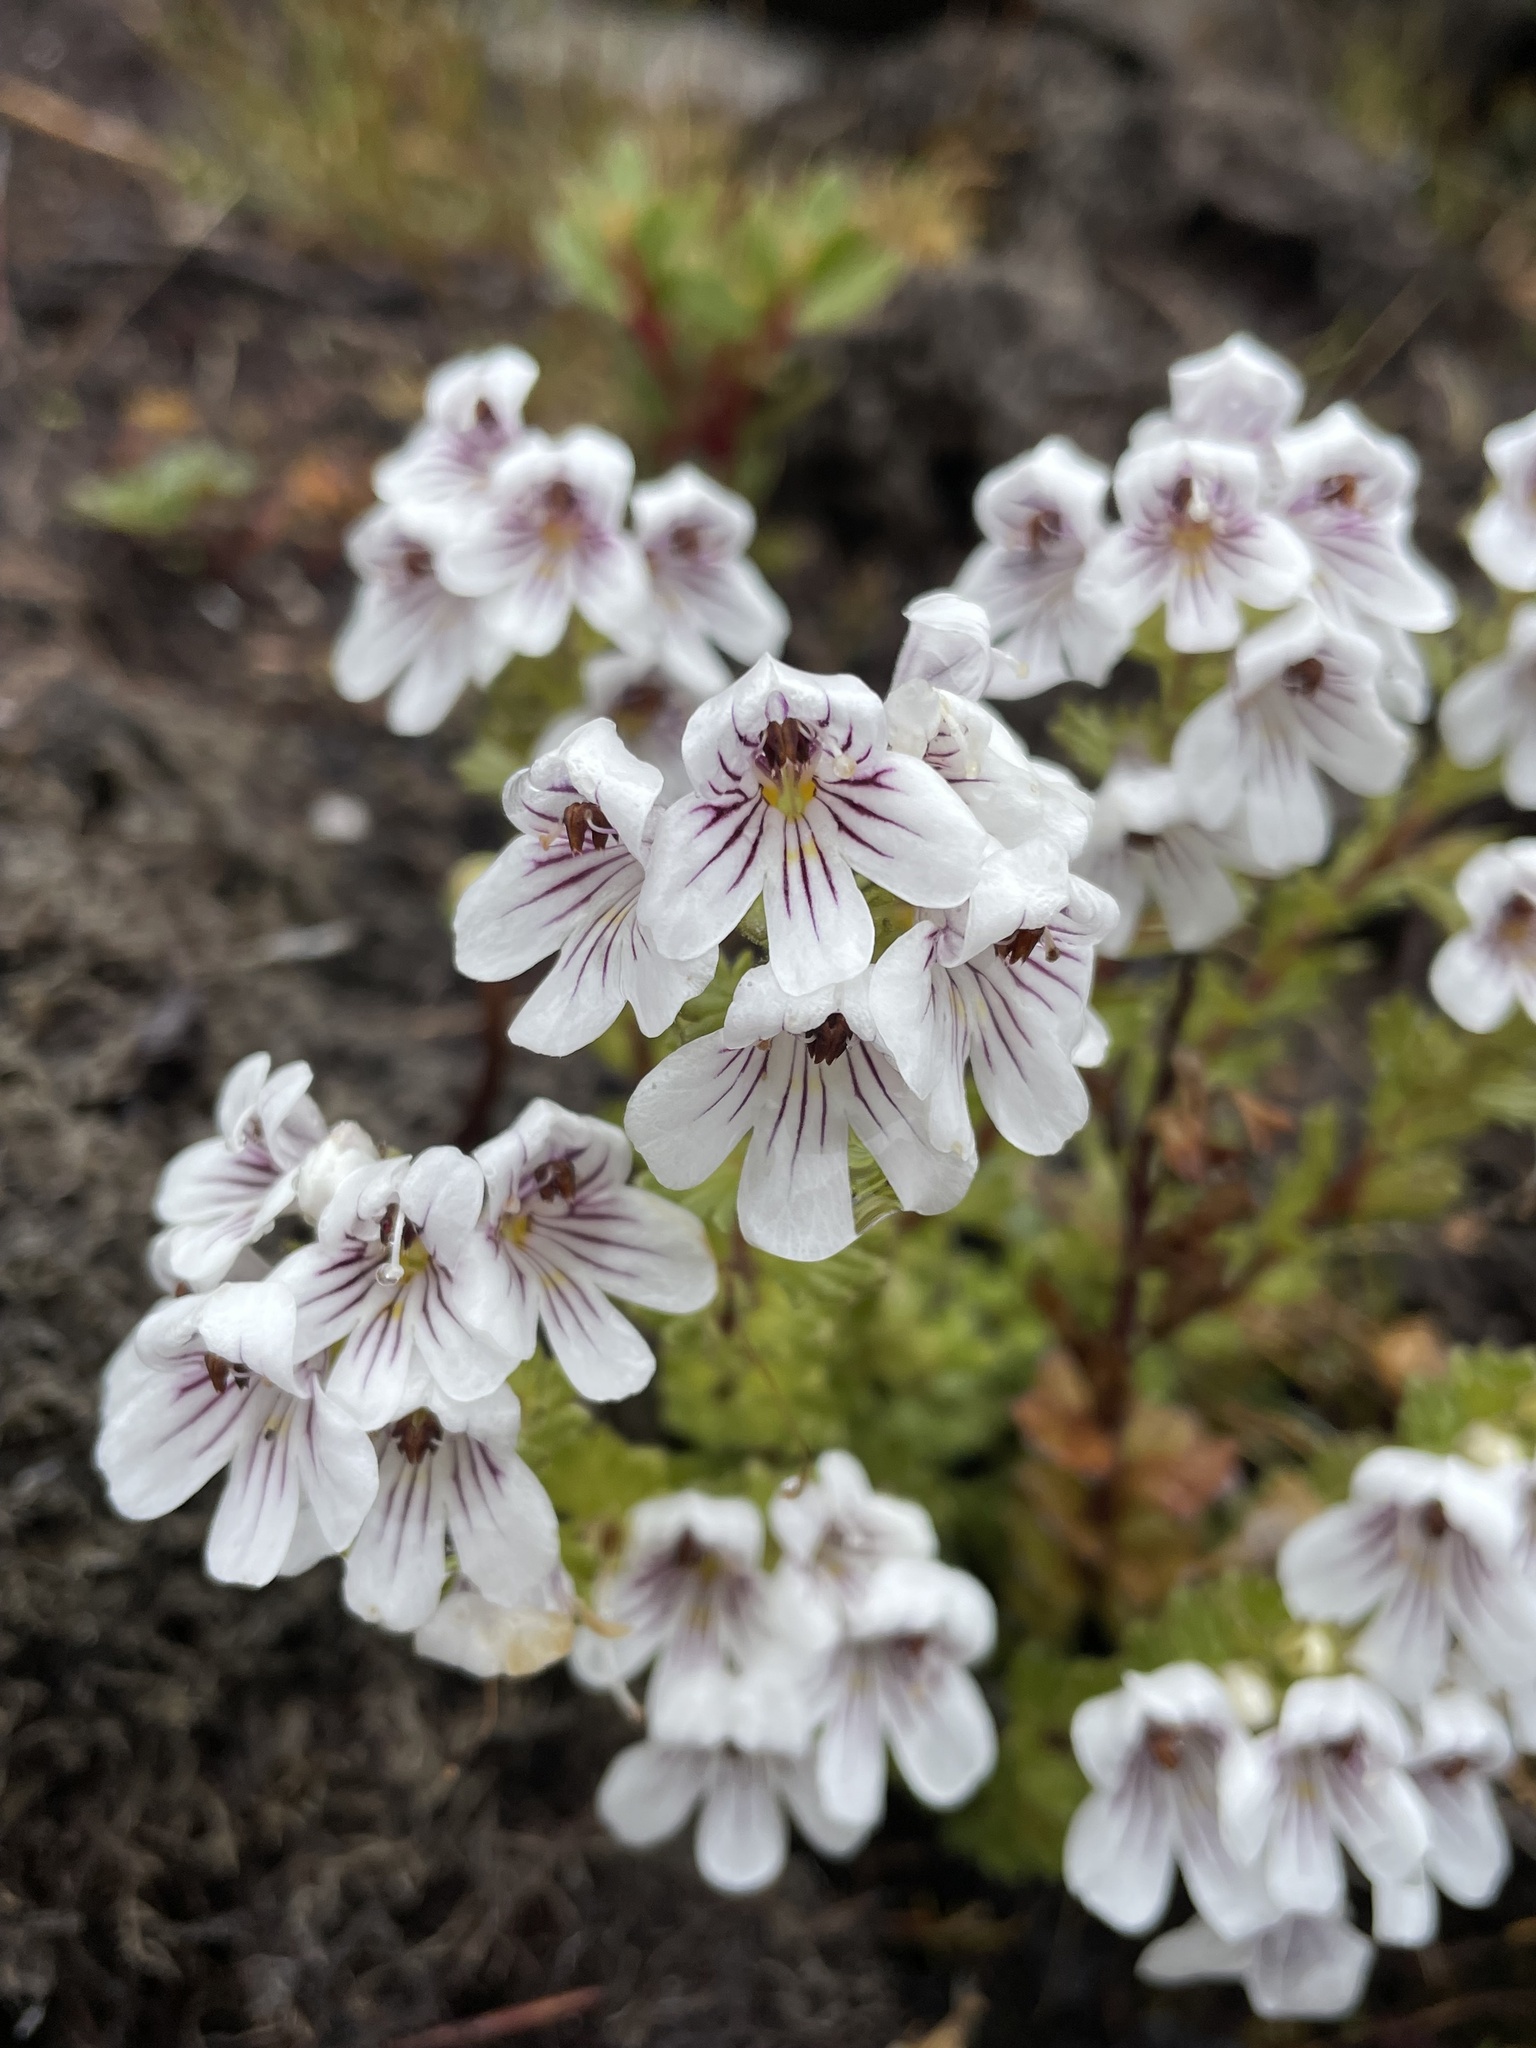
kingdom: Plantae
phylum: Tracheophyta
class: Magnoliopsida
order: Lamiales
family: Orobanchaceae
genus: Euphrasia
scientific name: Euphrasia gibbsiae
